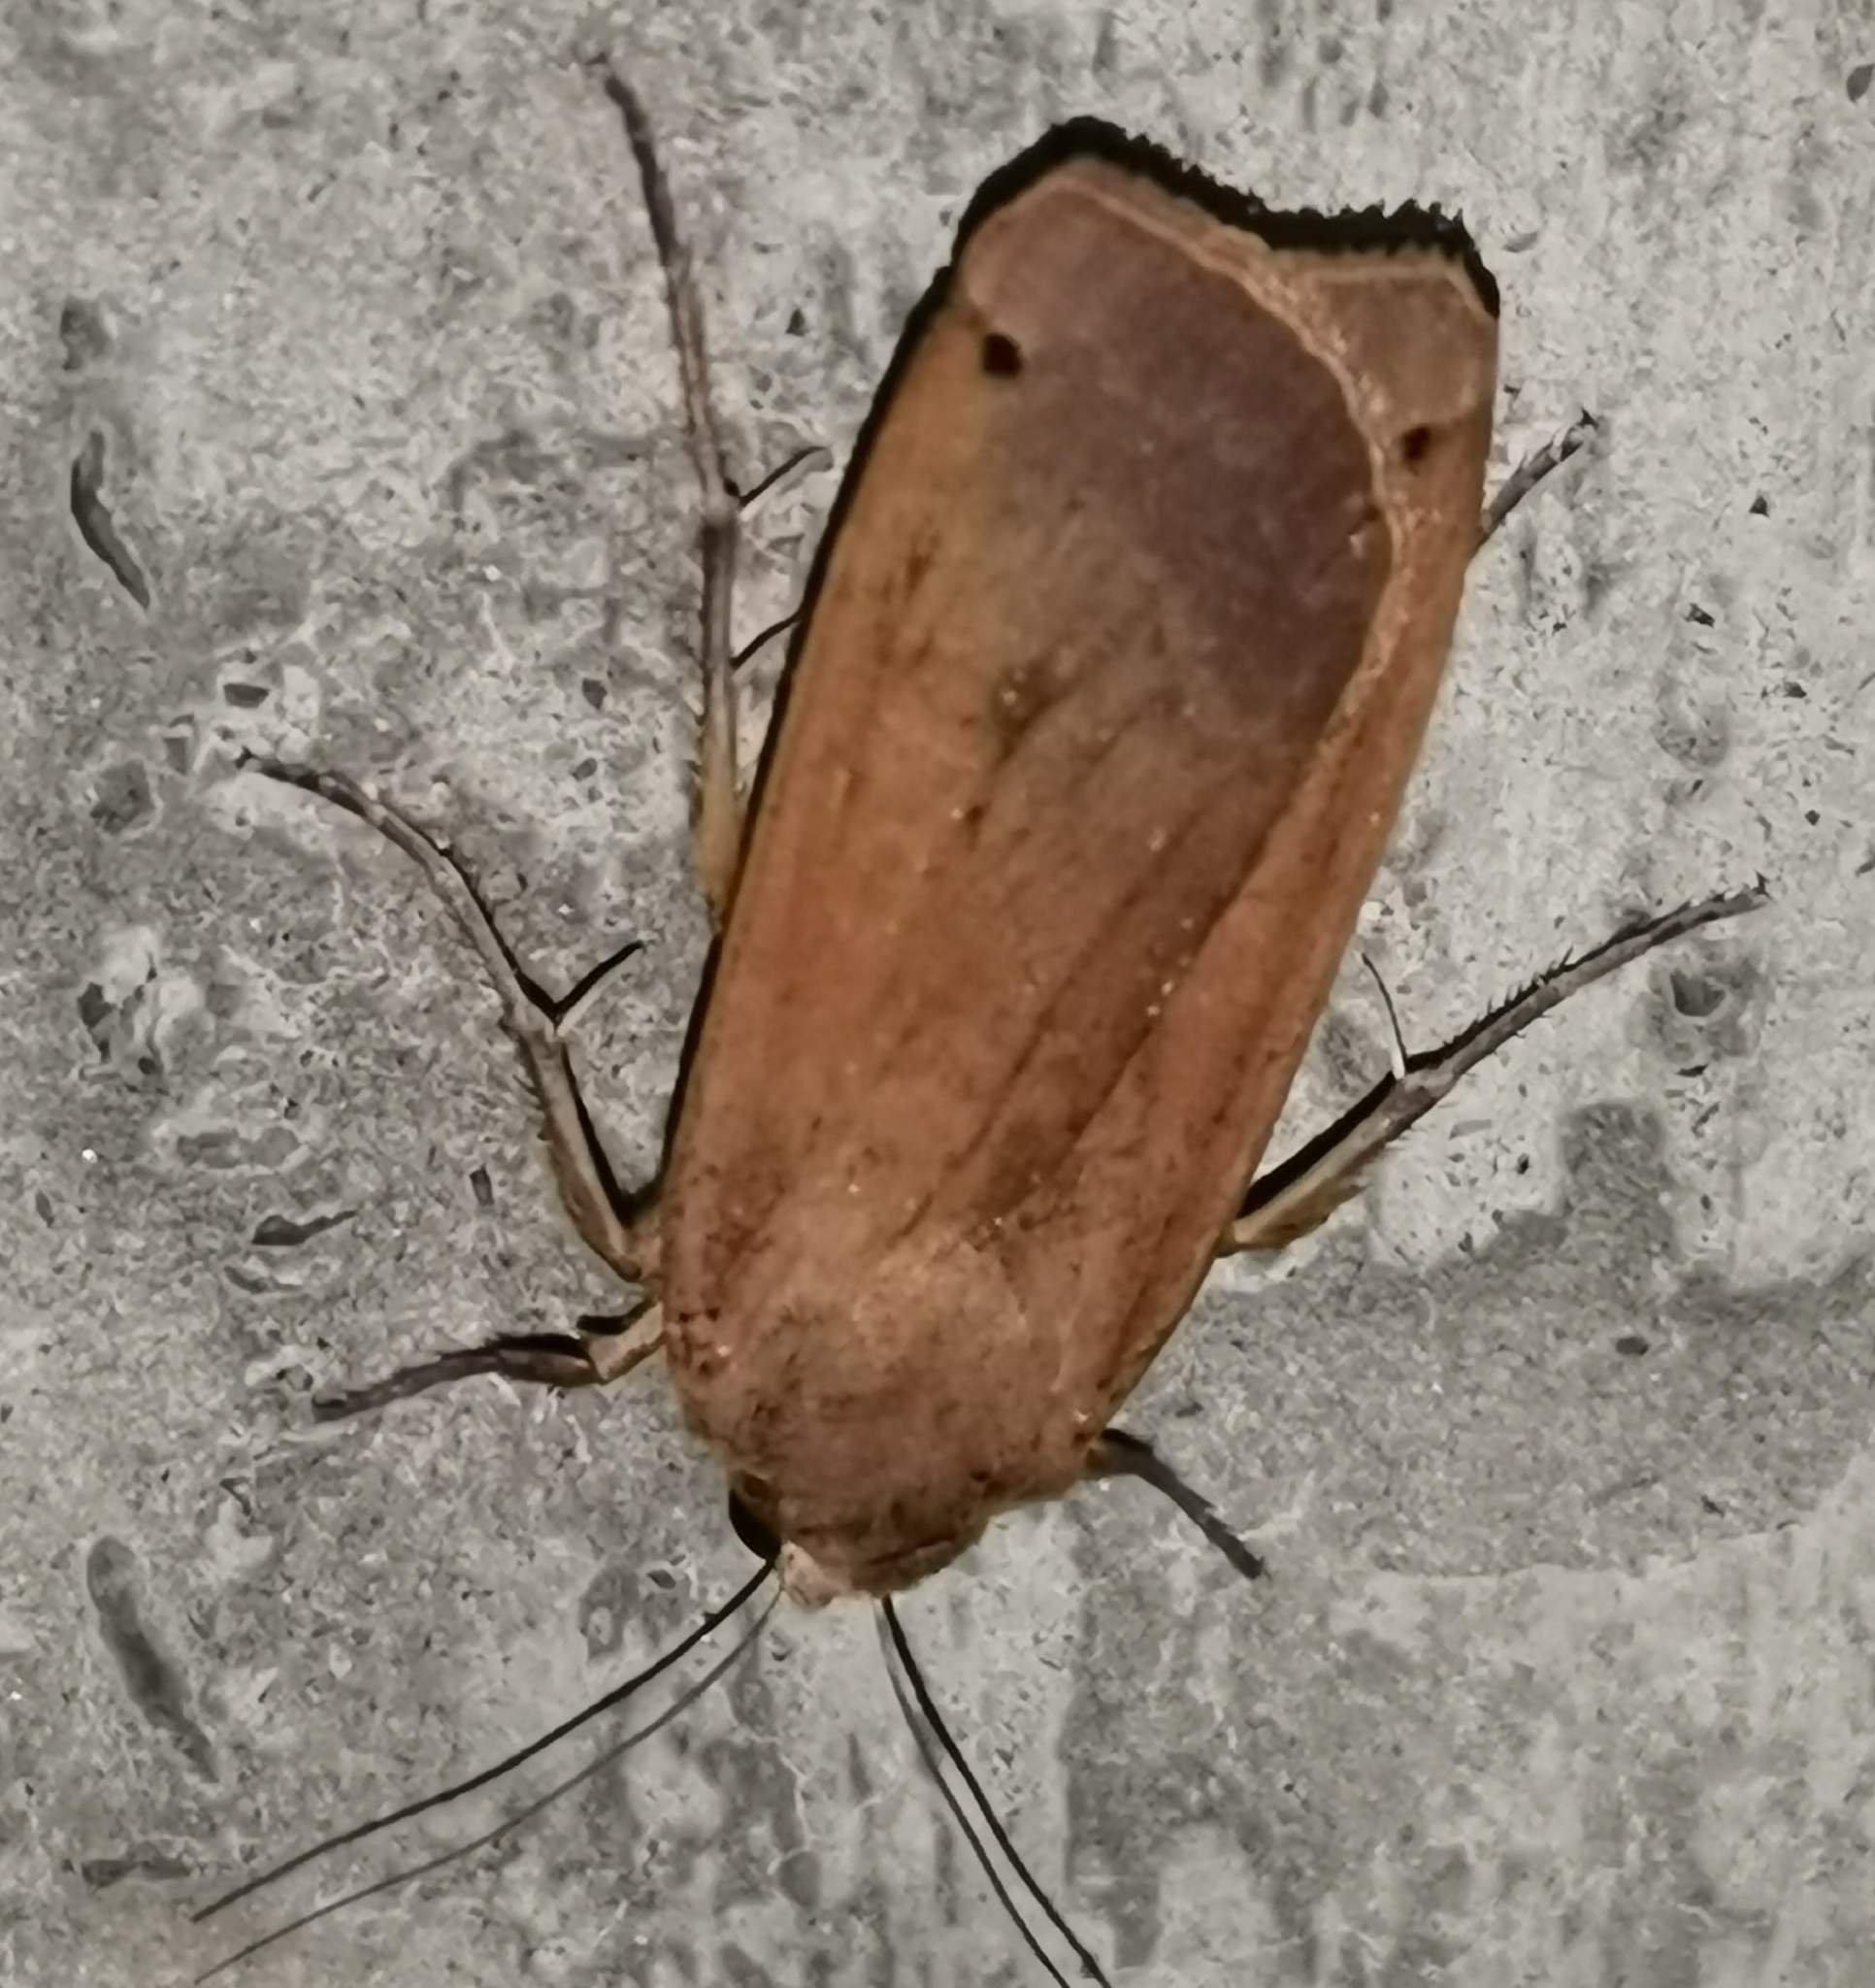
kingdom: Animalia
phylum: Arthropoda
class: Insecta
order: Lepidoptera
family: Noctuidae
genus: Noctua
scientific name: Noctua pronuba
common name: Large yellow underwing
